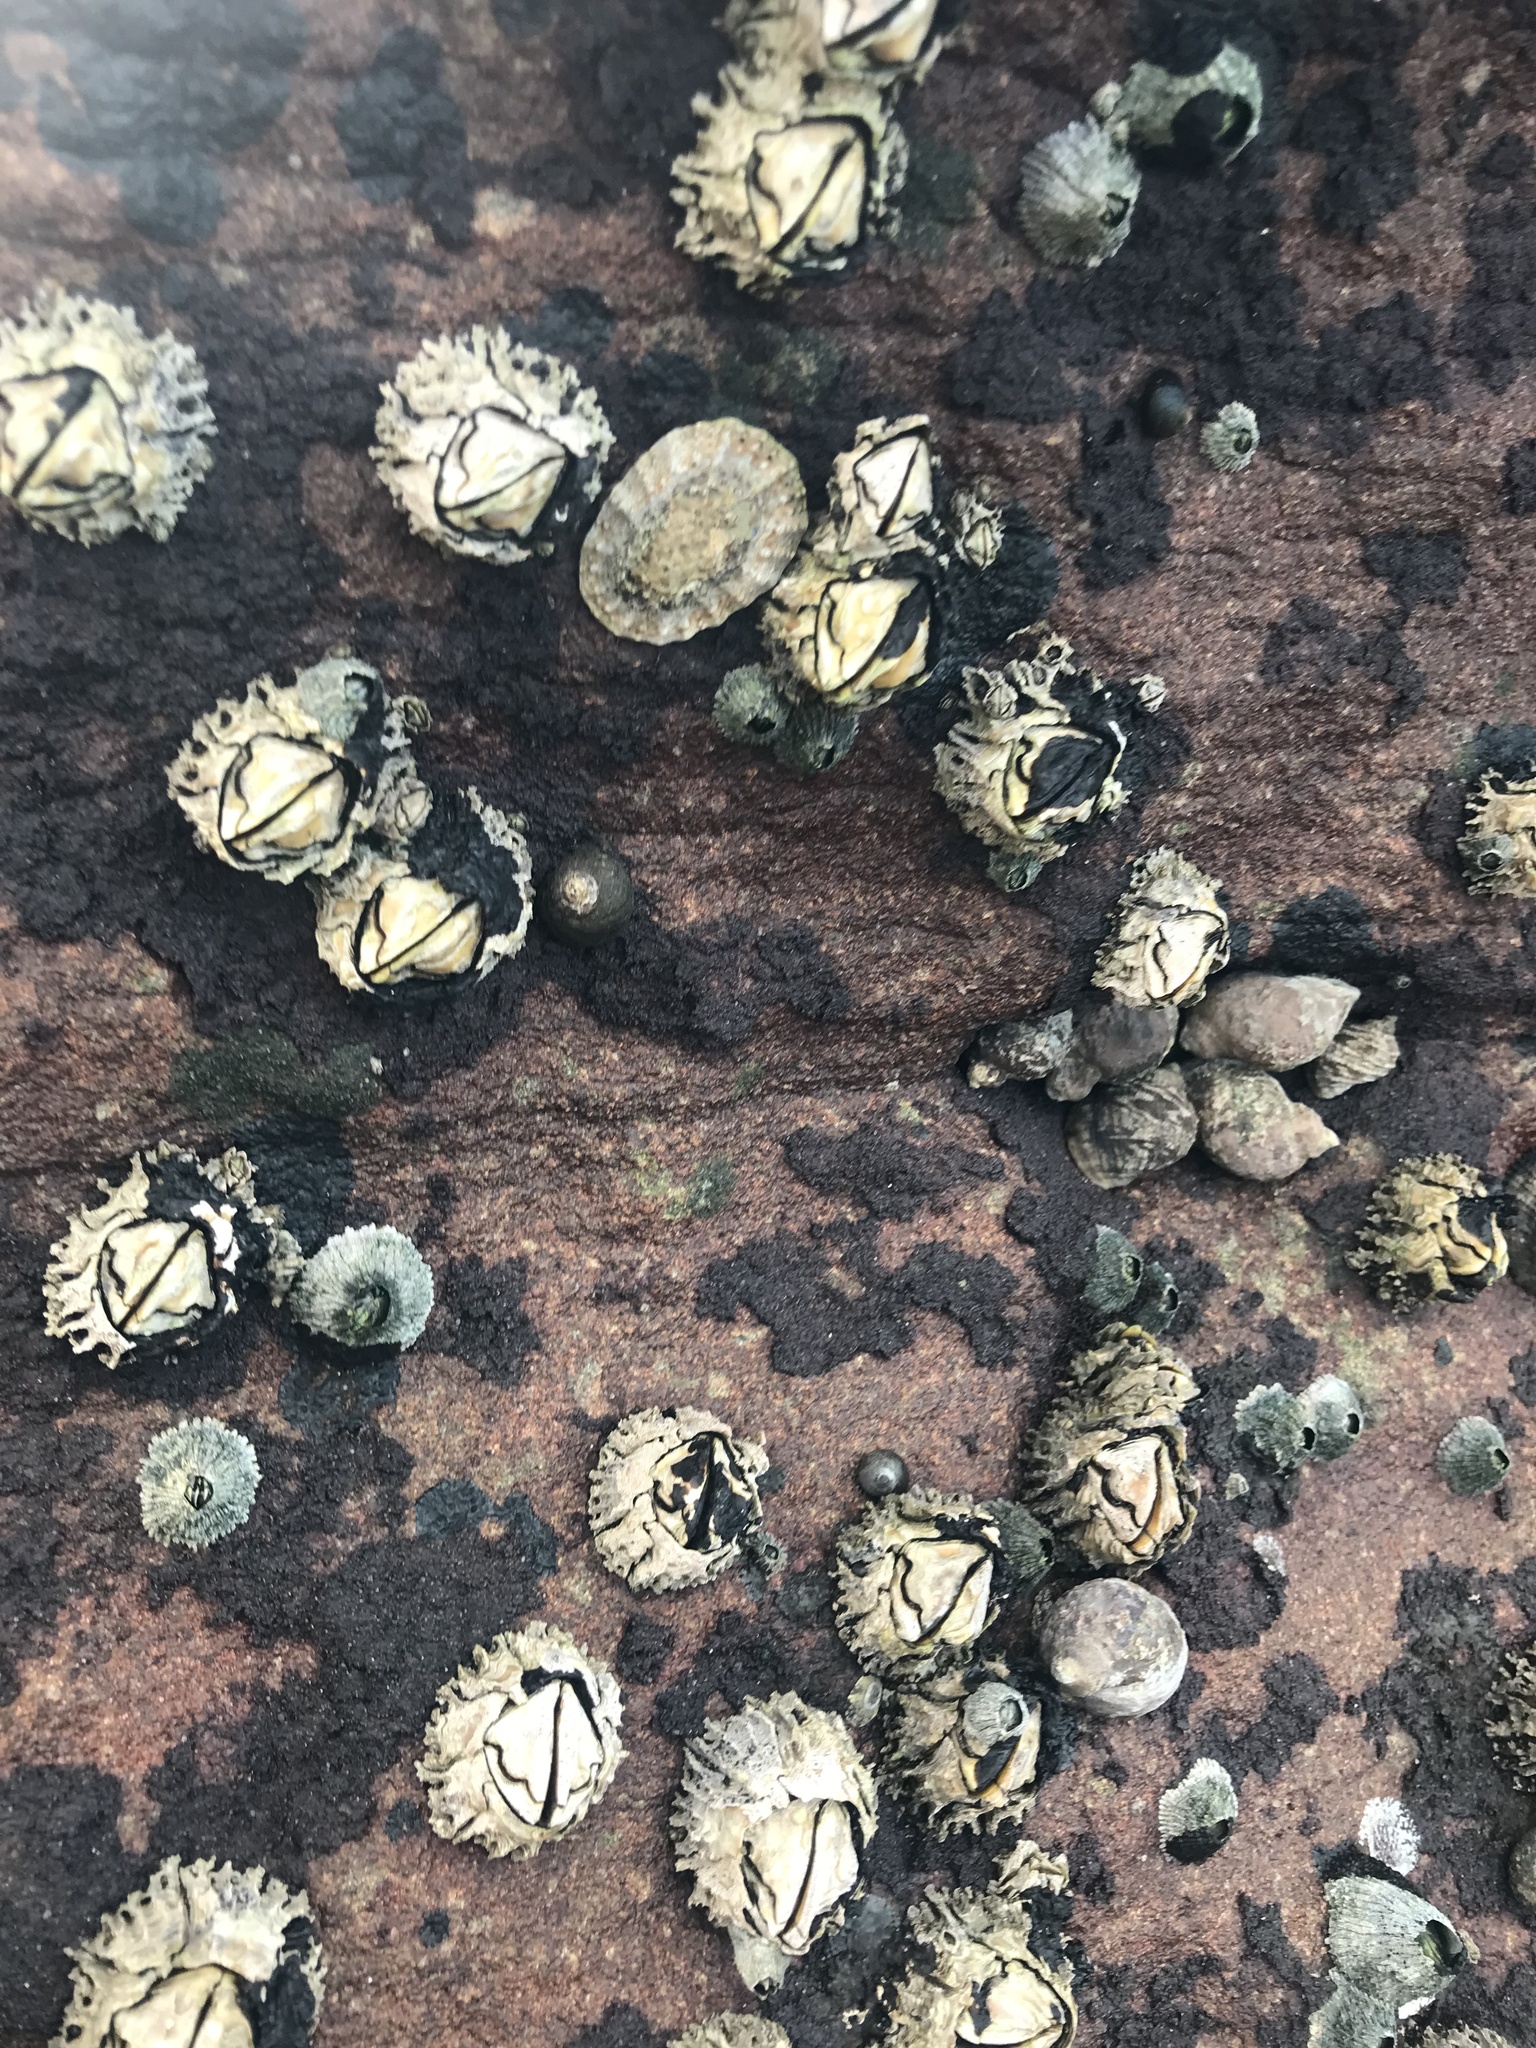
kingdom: Animalia
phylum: Arthropoda
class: Maxillopoda
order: Sessilia
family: Chthamalidae
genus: Octomeris
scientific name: Octomeris angulosa
